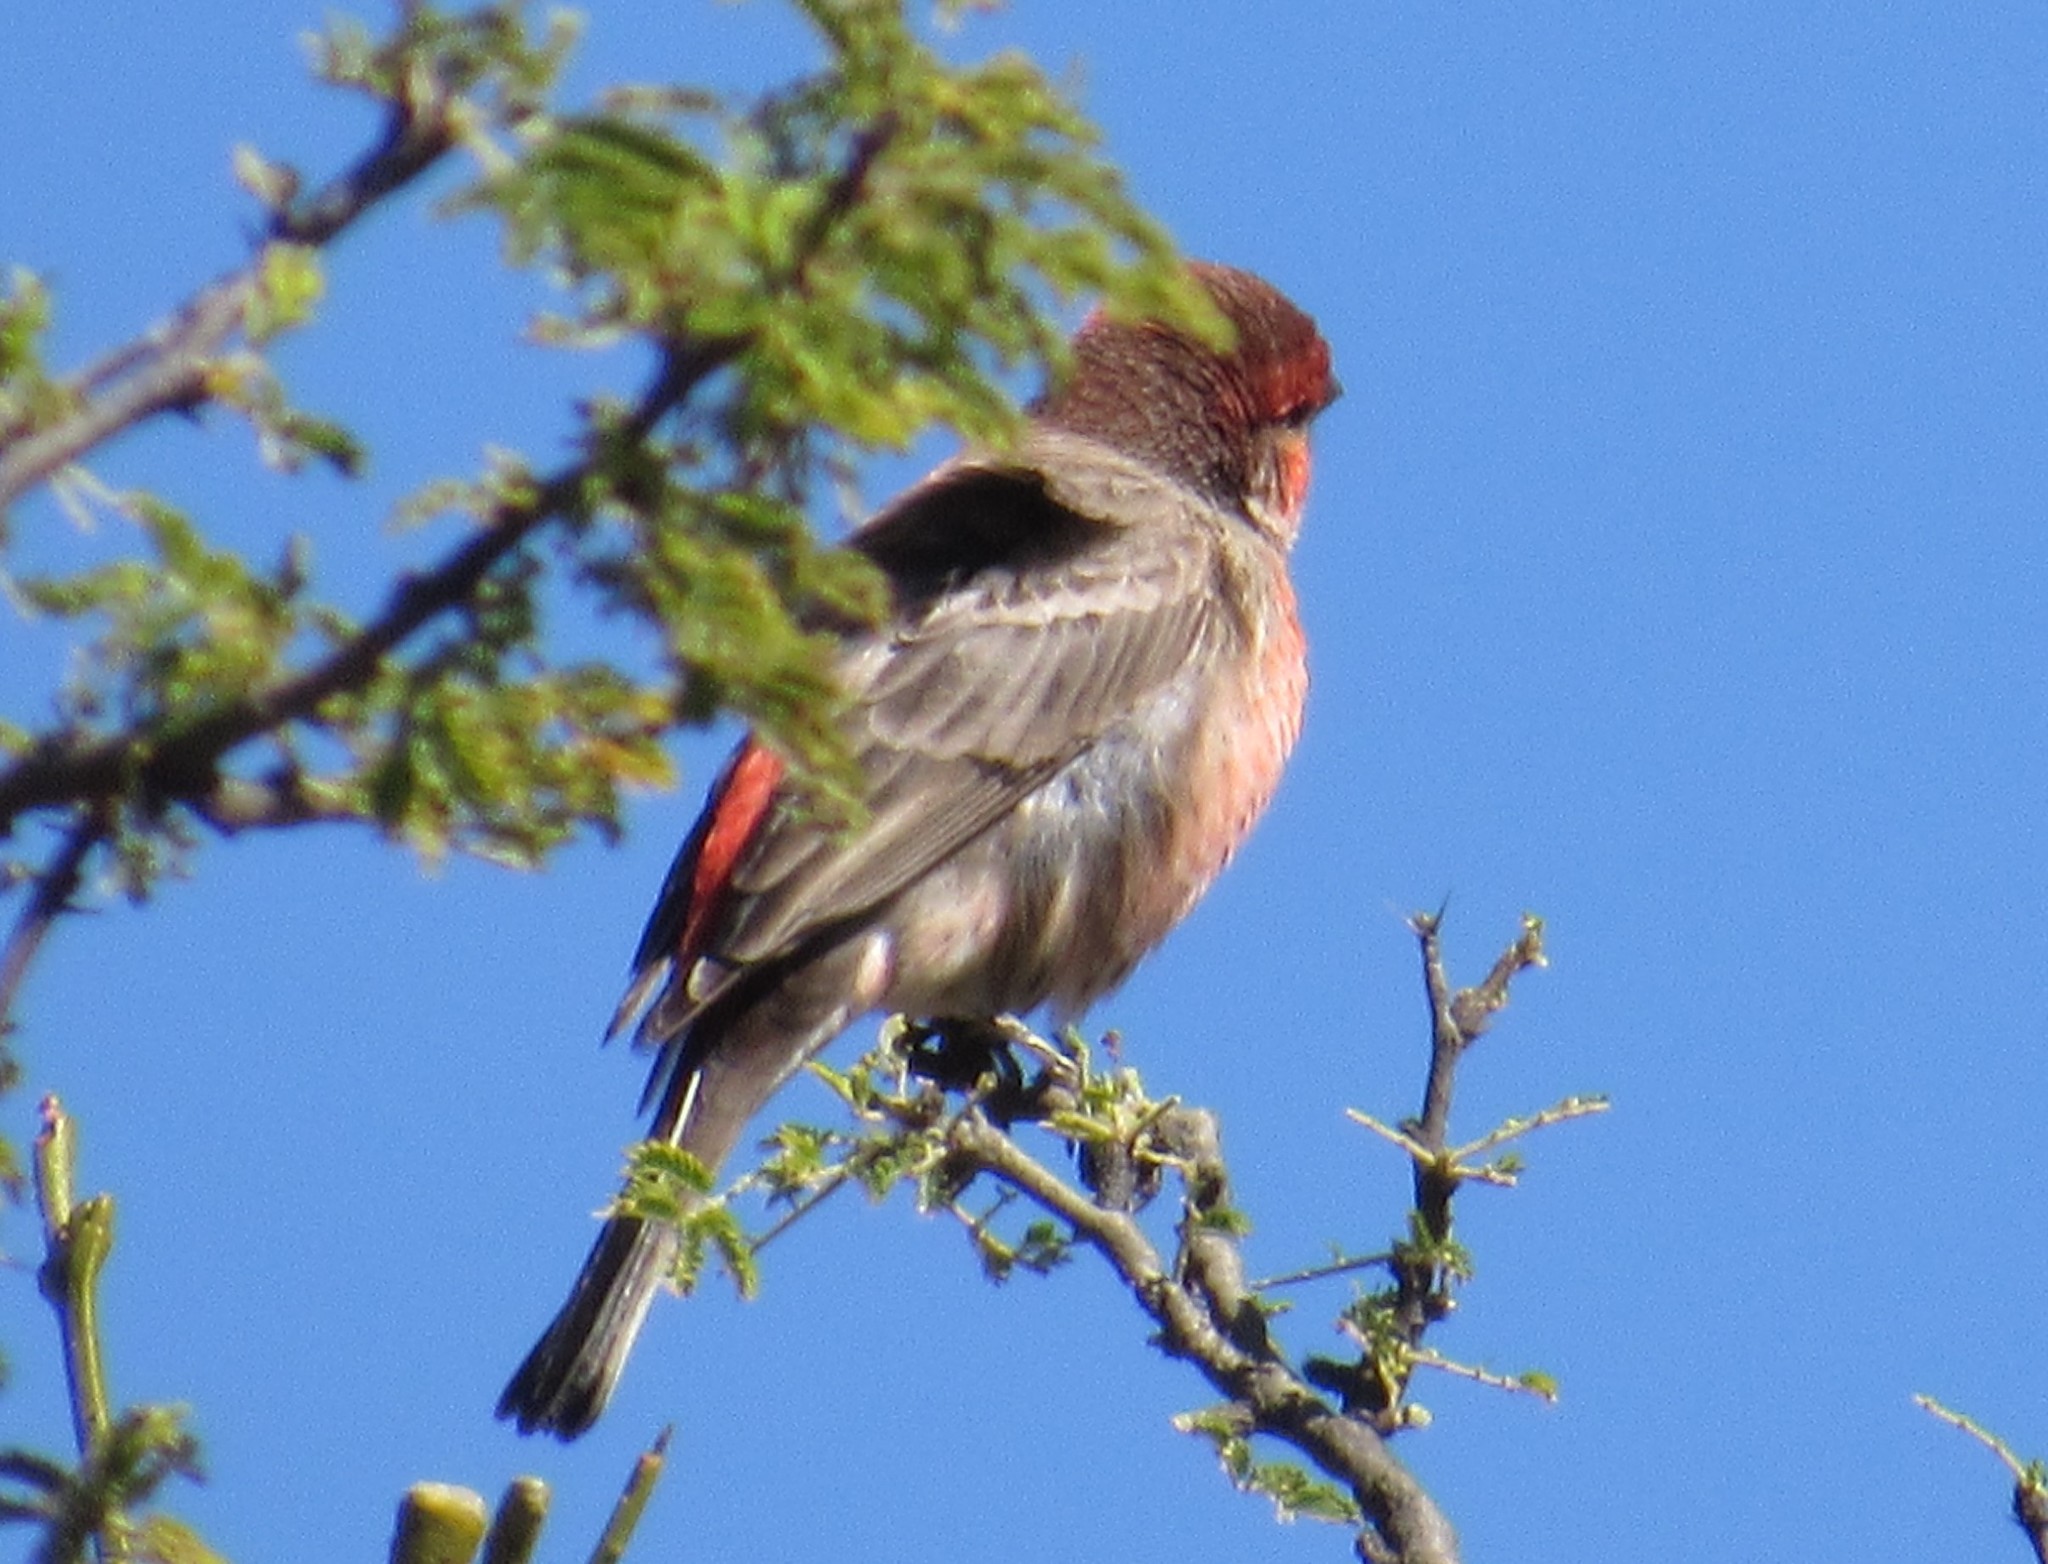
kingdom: Animalia
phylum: Chordata
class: Aves
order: Passeriformes
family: Fringillidae
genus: Haemorhous
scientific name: Haemorhous mexicanus
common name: House finch
